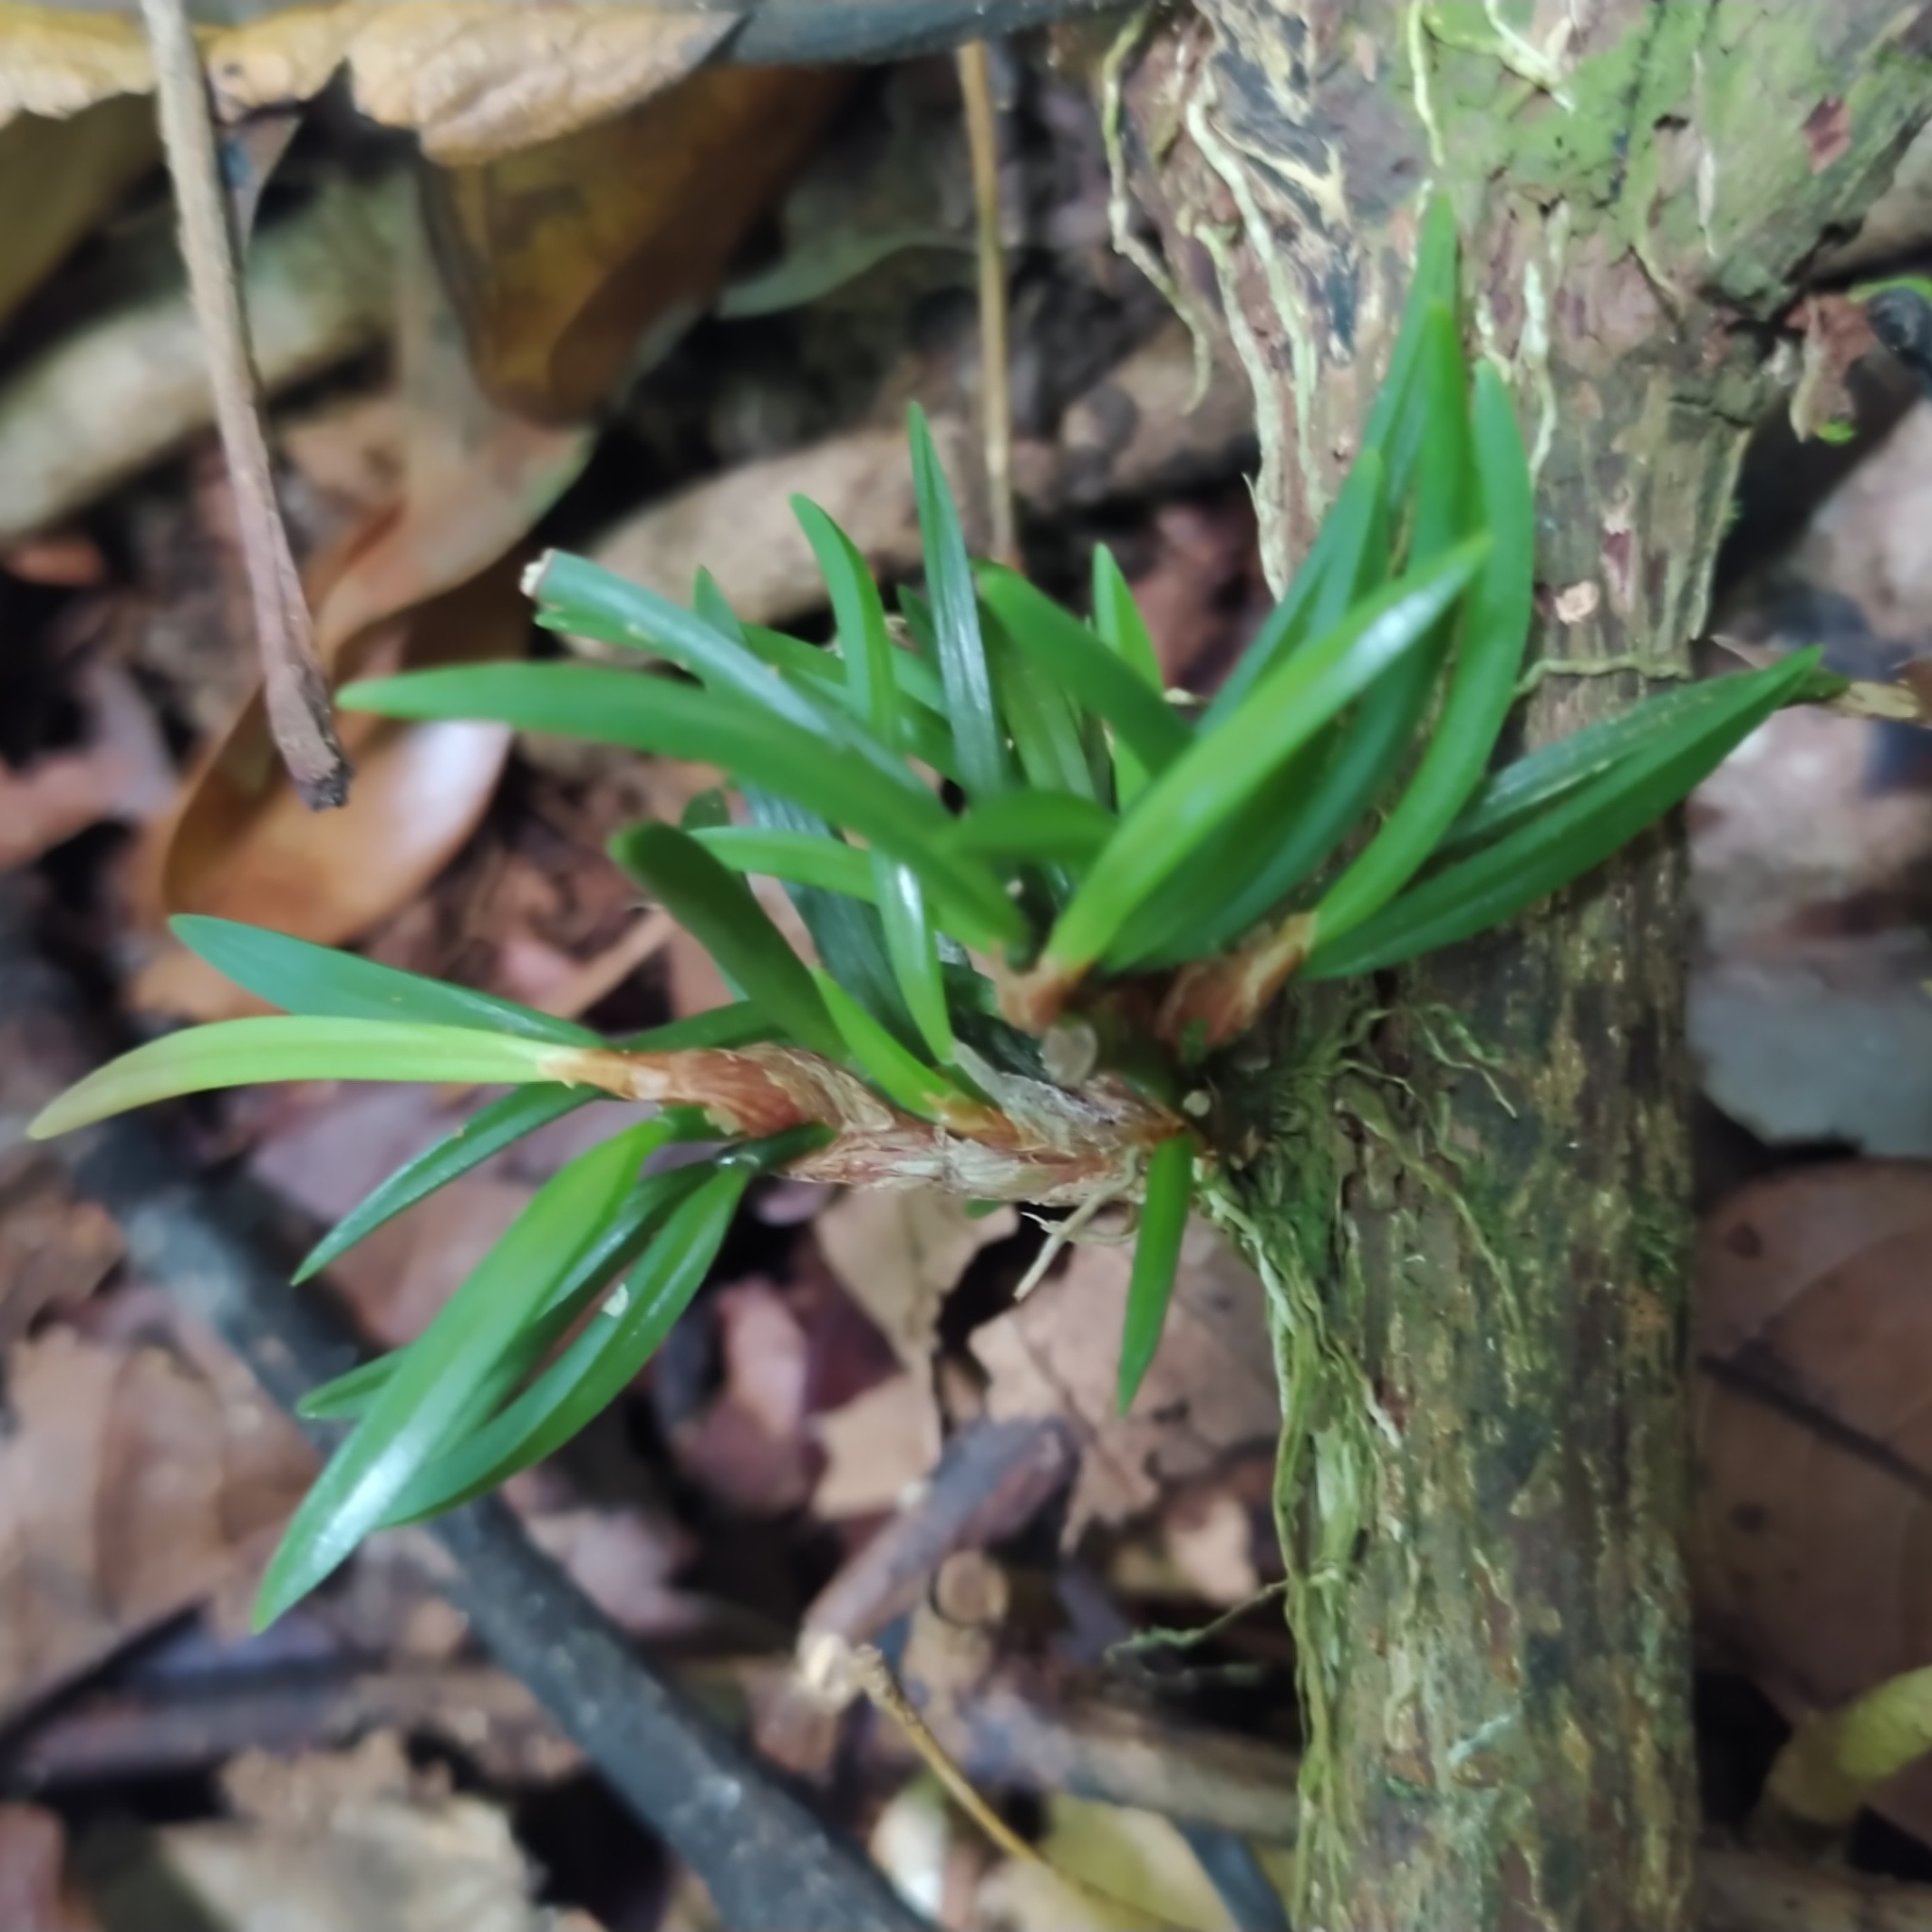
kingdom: Plantae
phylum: Tracheophyta
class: Liliopsida
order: Asparagales
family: Orchidaceae
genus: Maxillaria
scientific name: Maxillaria uncata
